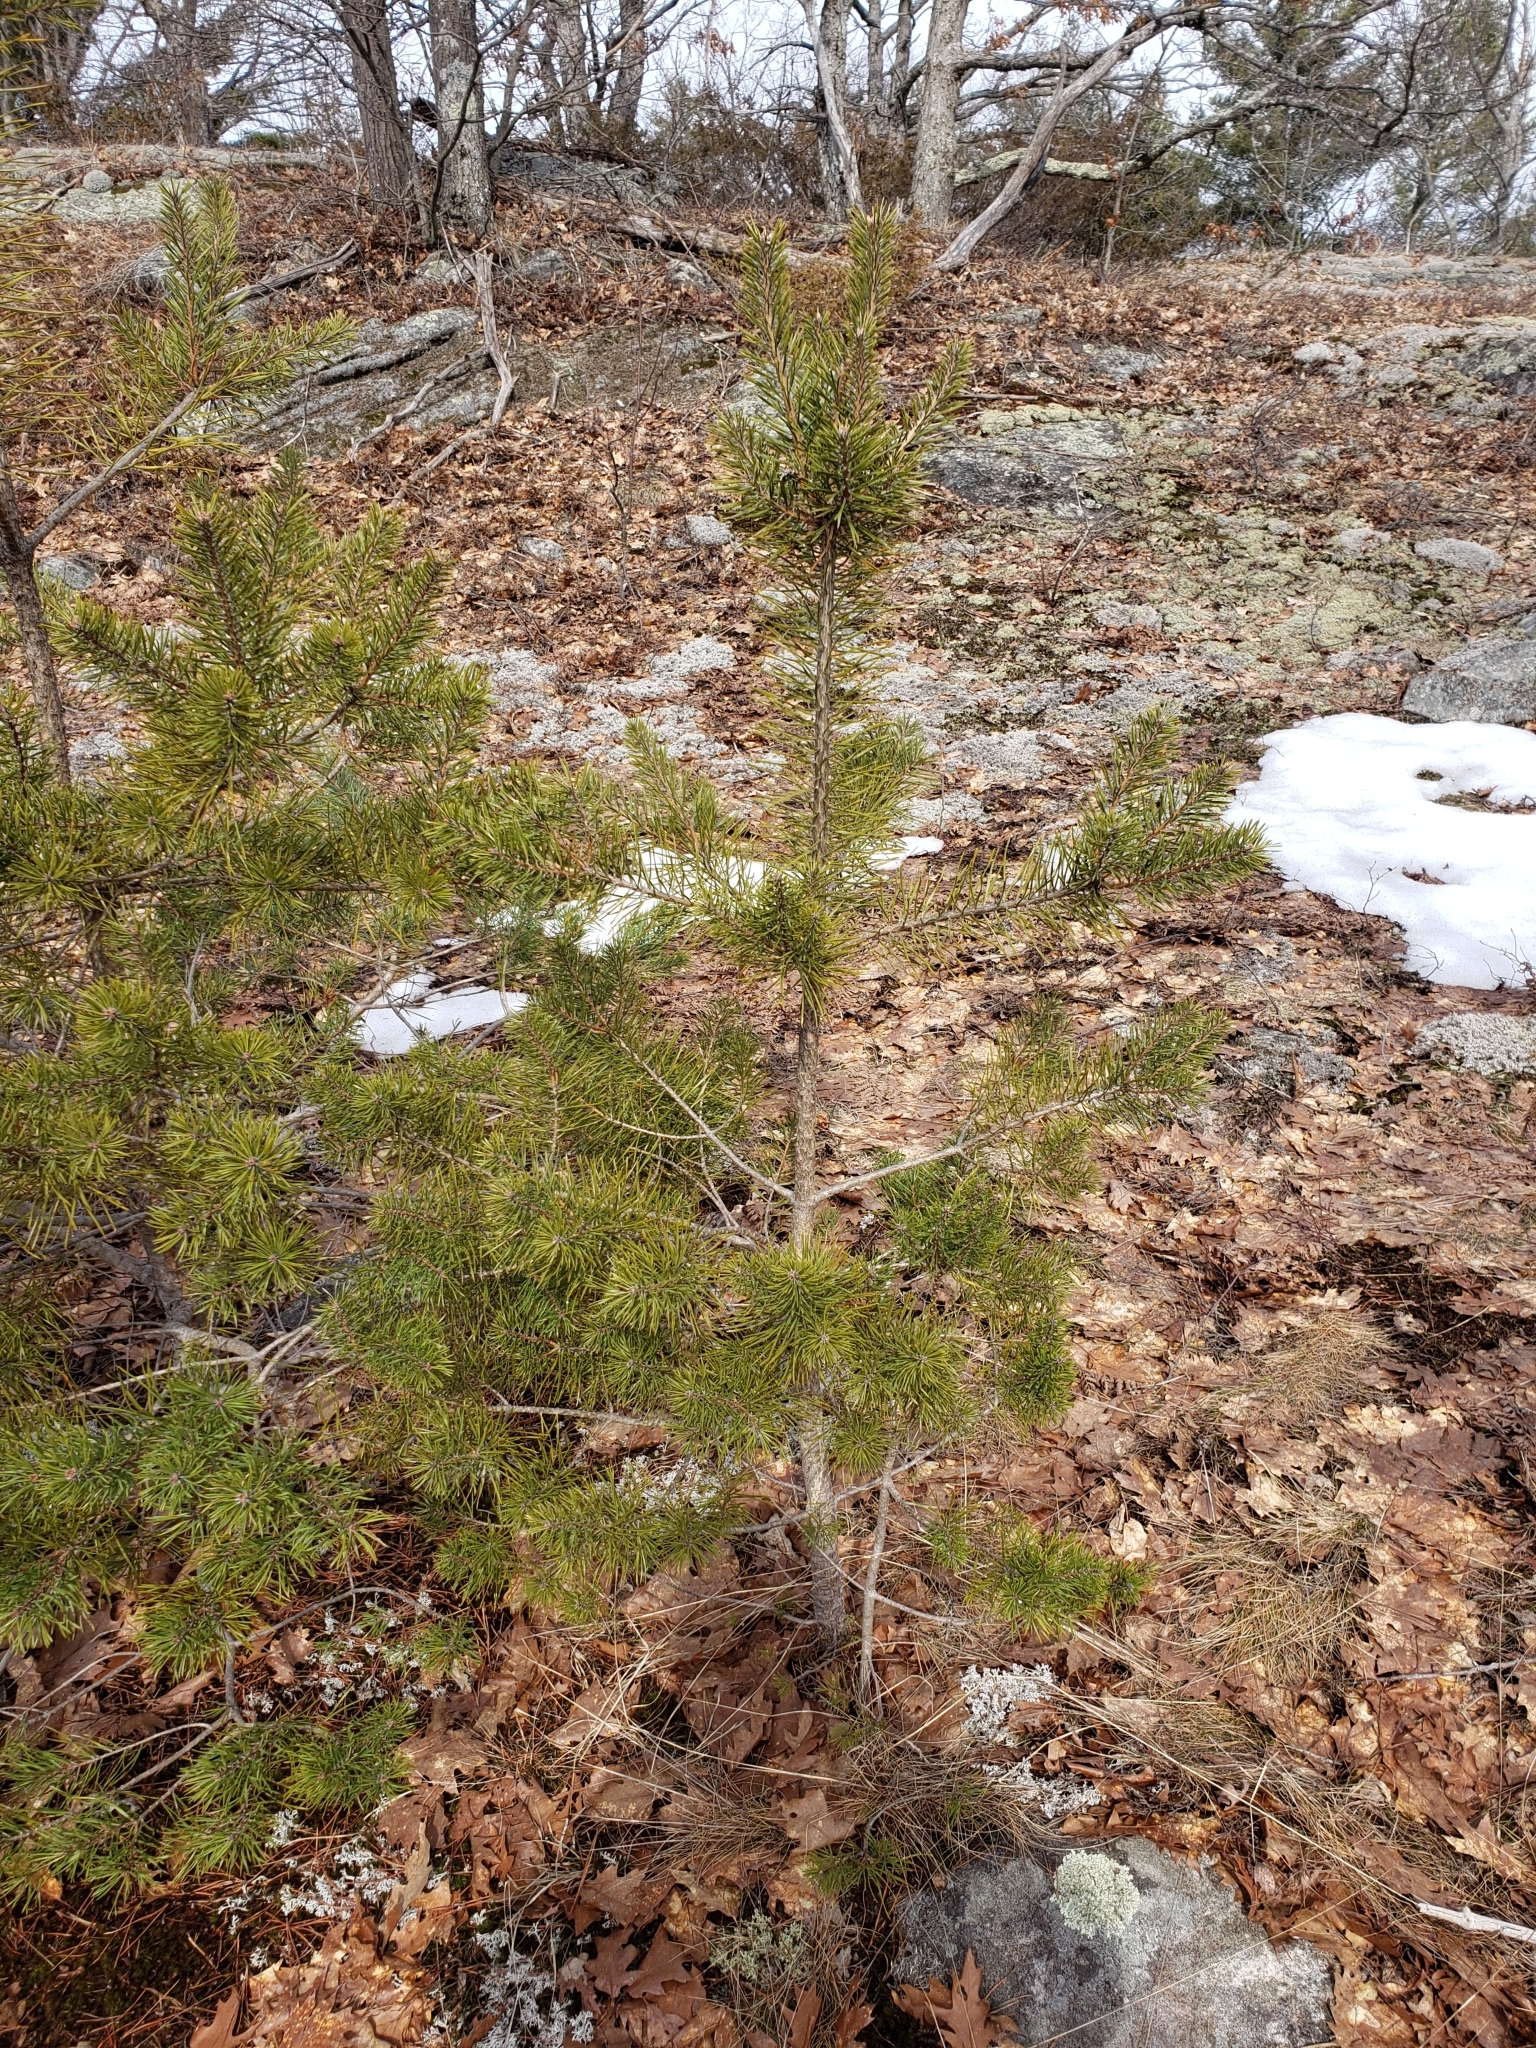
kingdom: Plantae
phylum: Tracheophyta
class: Pinopsida
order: Pinales
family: Pinaceae
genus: Pinus
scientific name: Pinus sylvestris
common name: Scots pine
